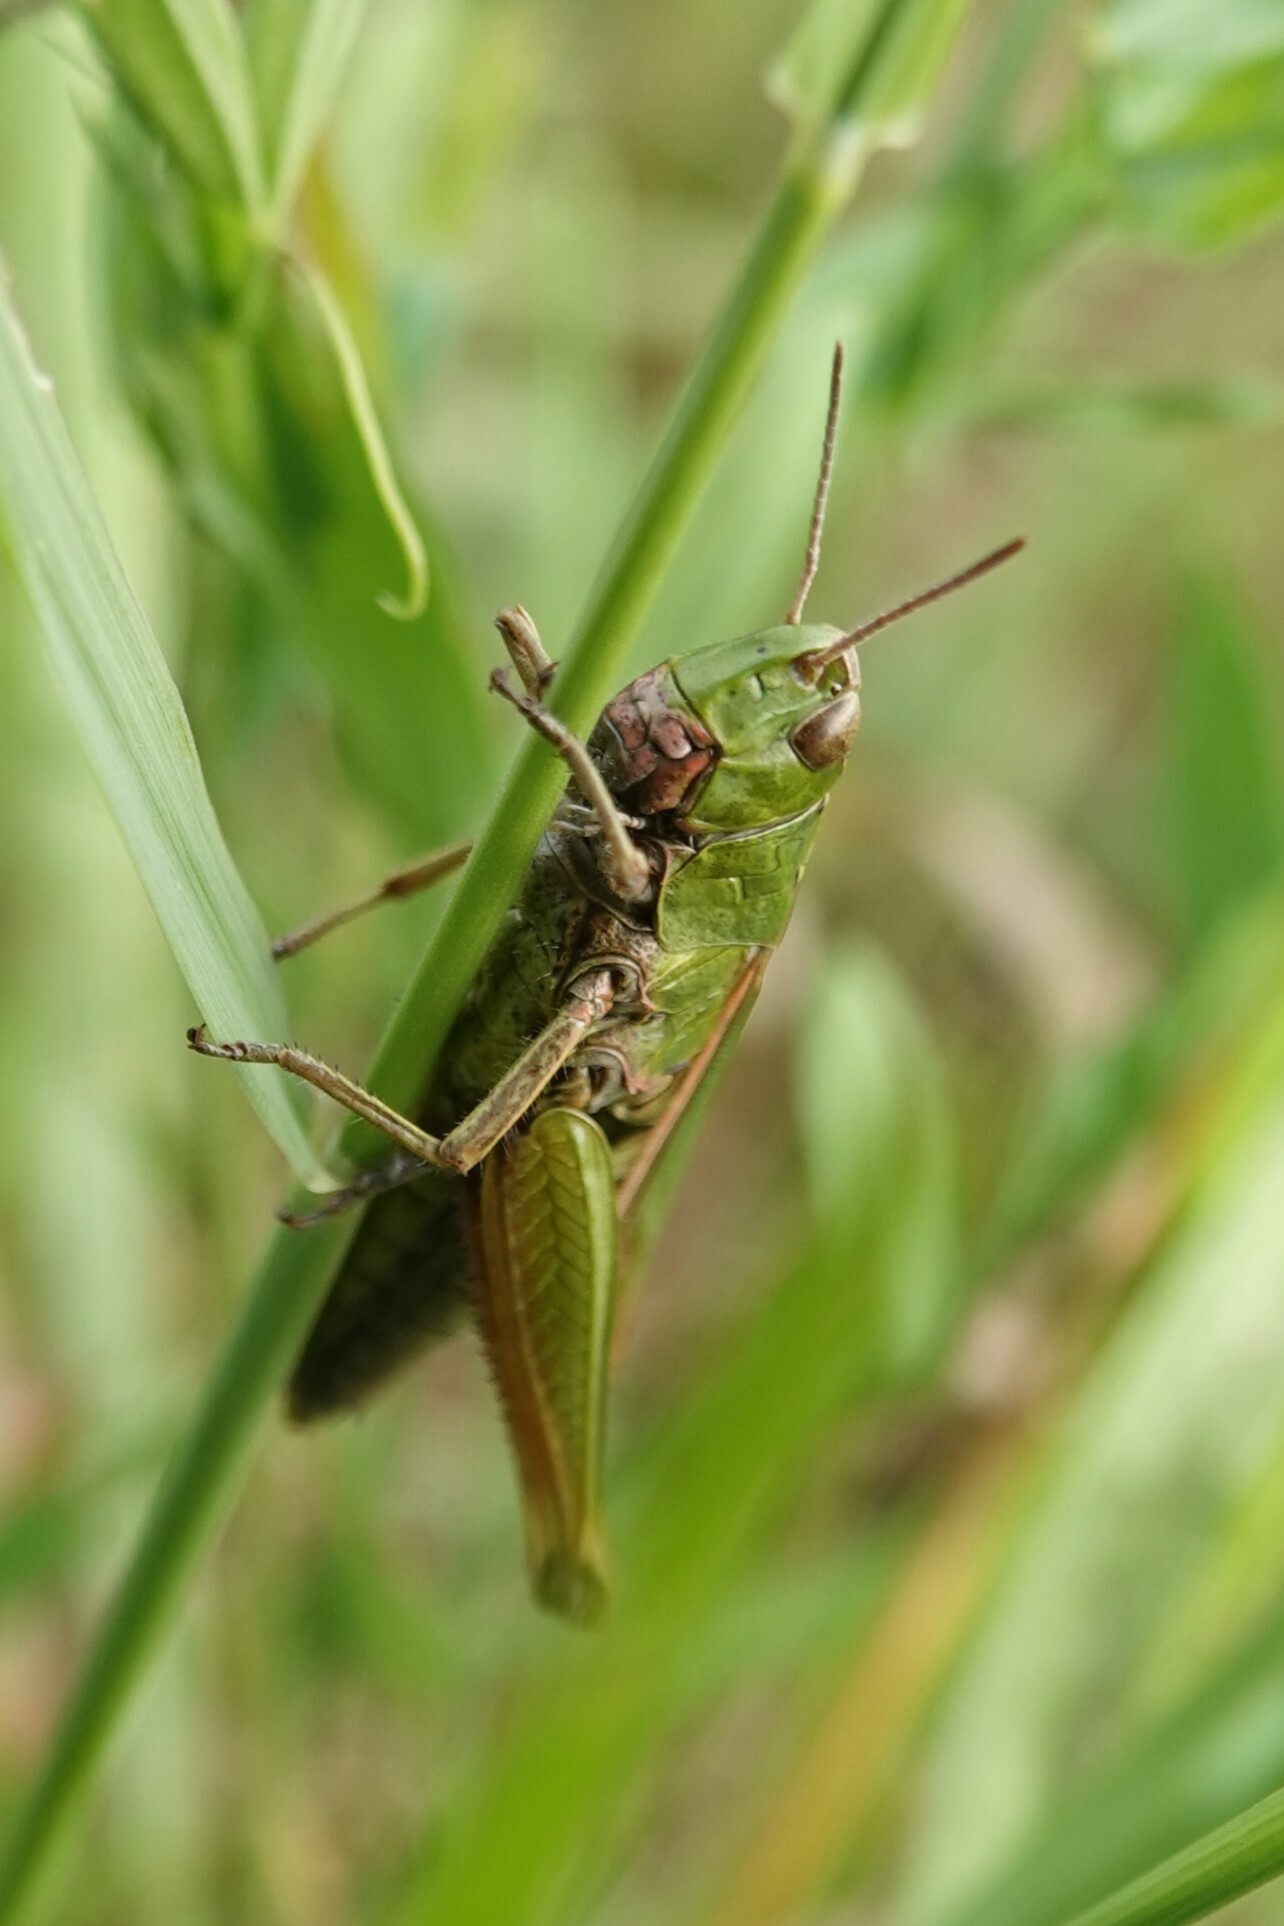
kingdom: Animalia
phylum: Arthropoda
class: Insecta
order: Orthoptera
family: Acrididae
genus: Omocestus
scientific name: Omocestus viridulus
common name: Common green grasshopper
